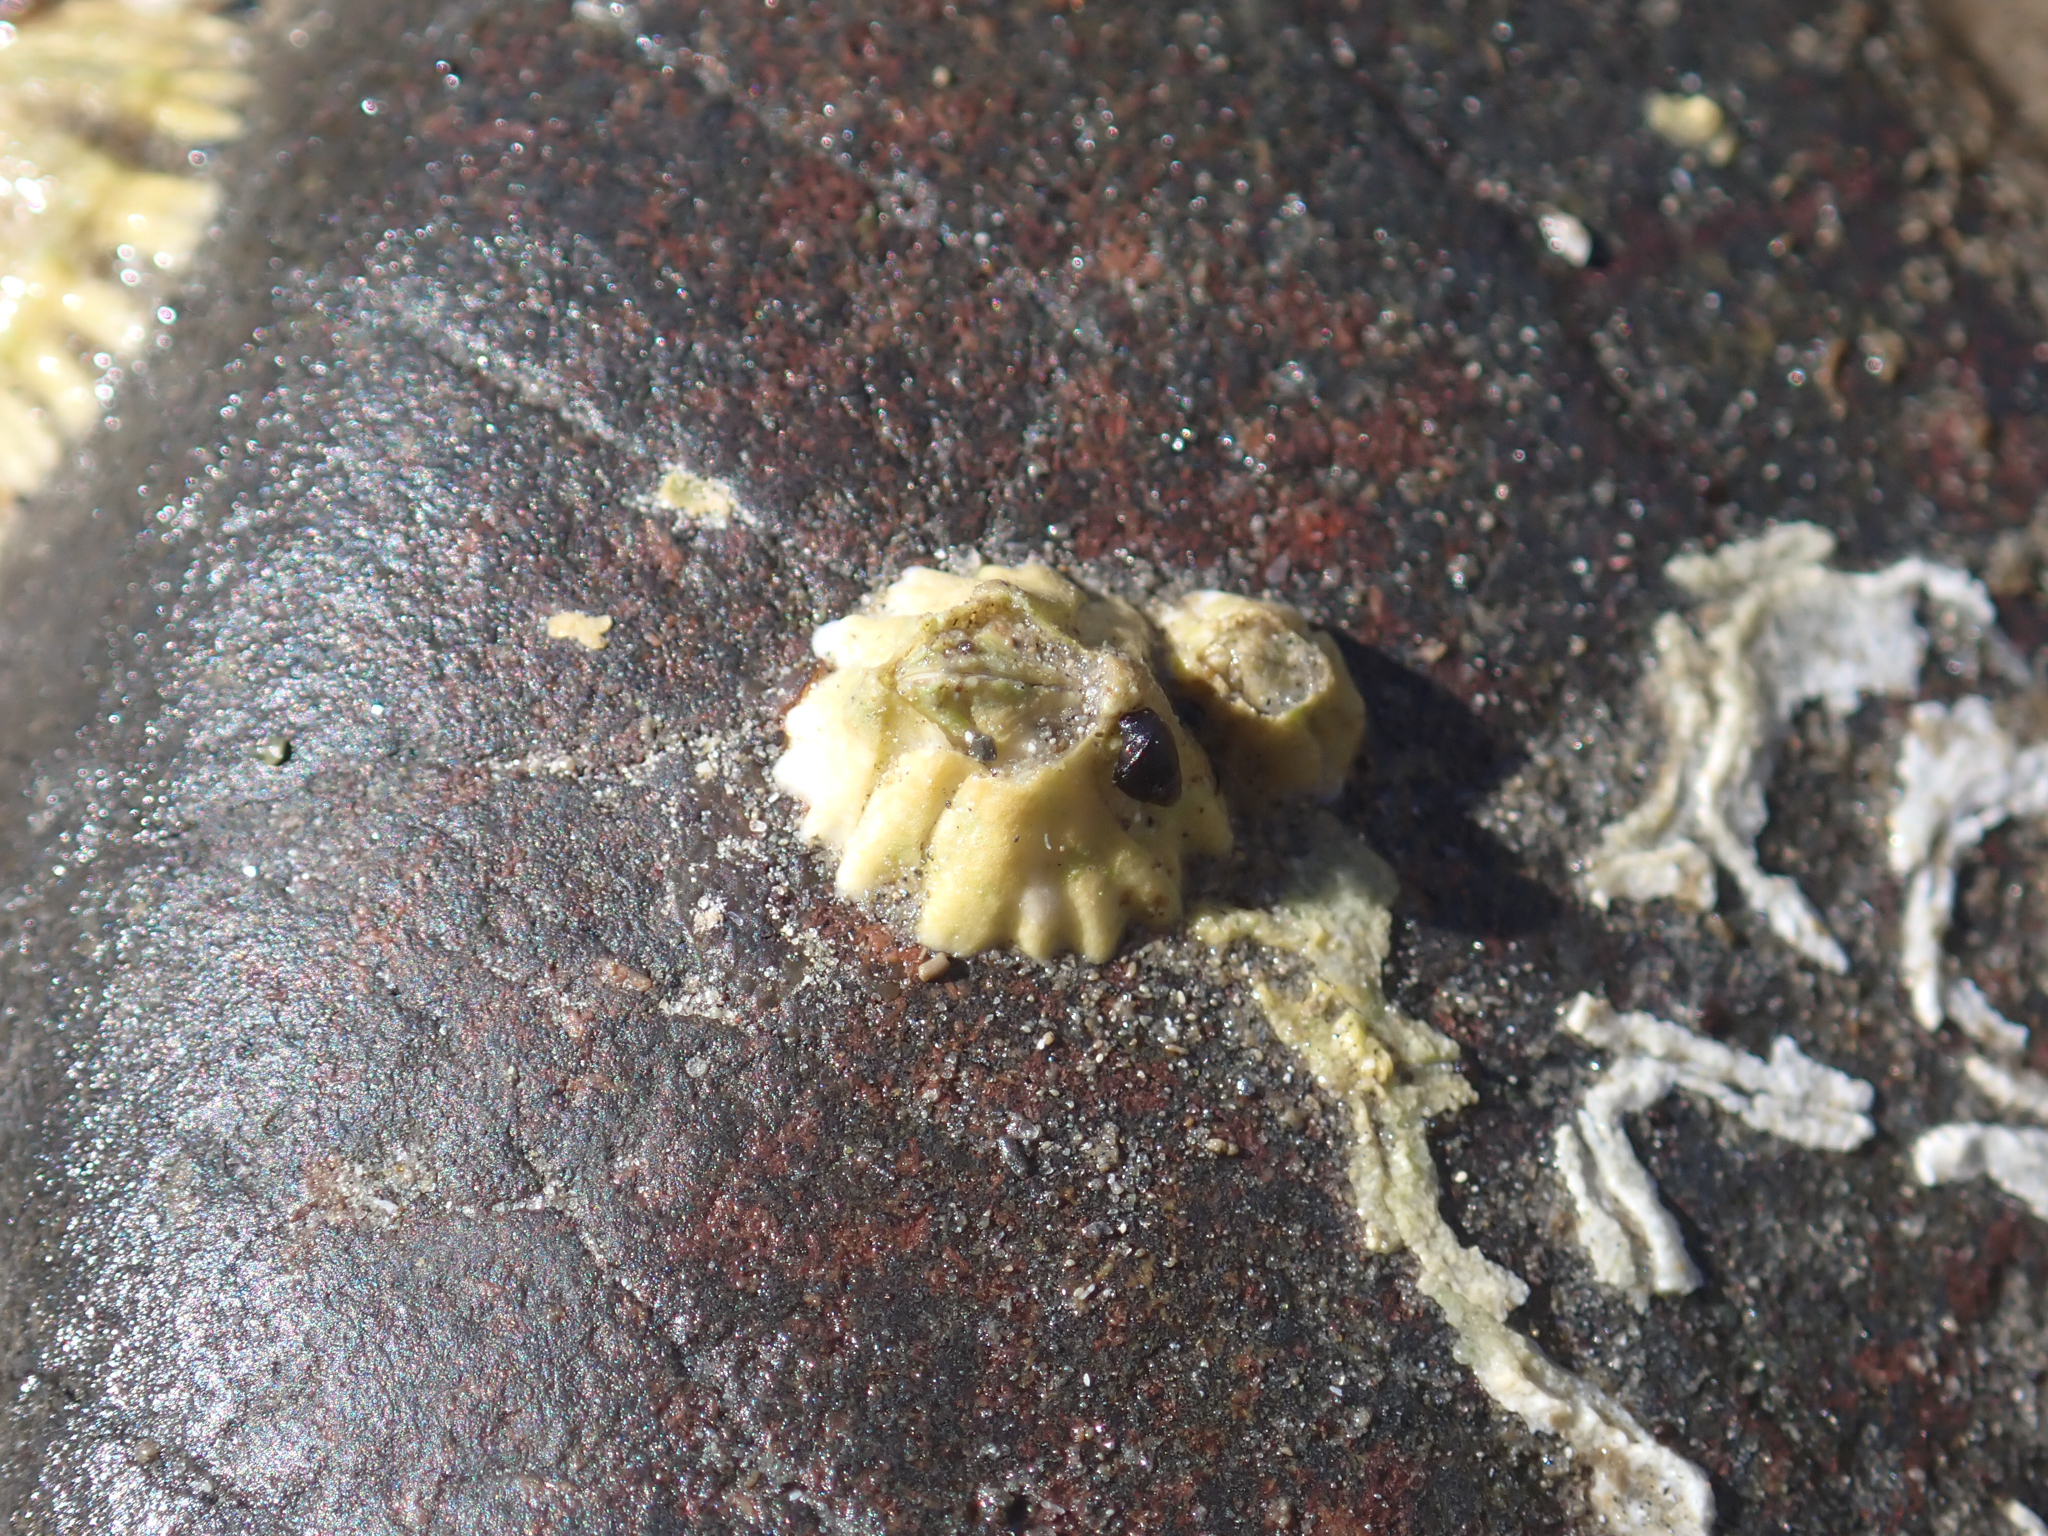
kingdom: Animalia
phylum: Arthropoda
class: Maxillopoda
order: Sessilia
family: Balanidae
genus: Balanus
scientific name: Balanus glandula
